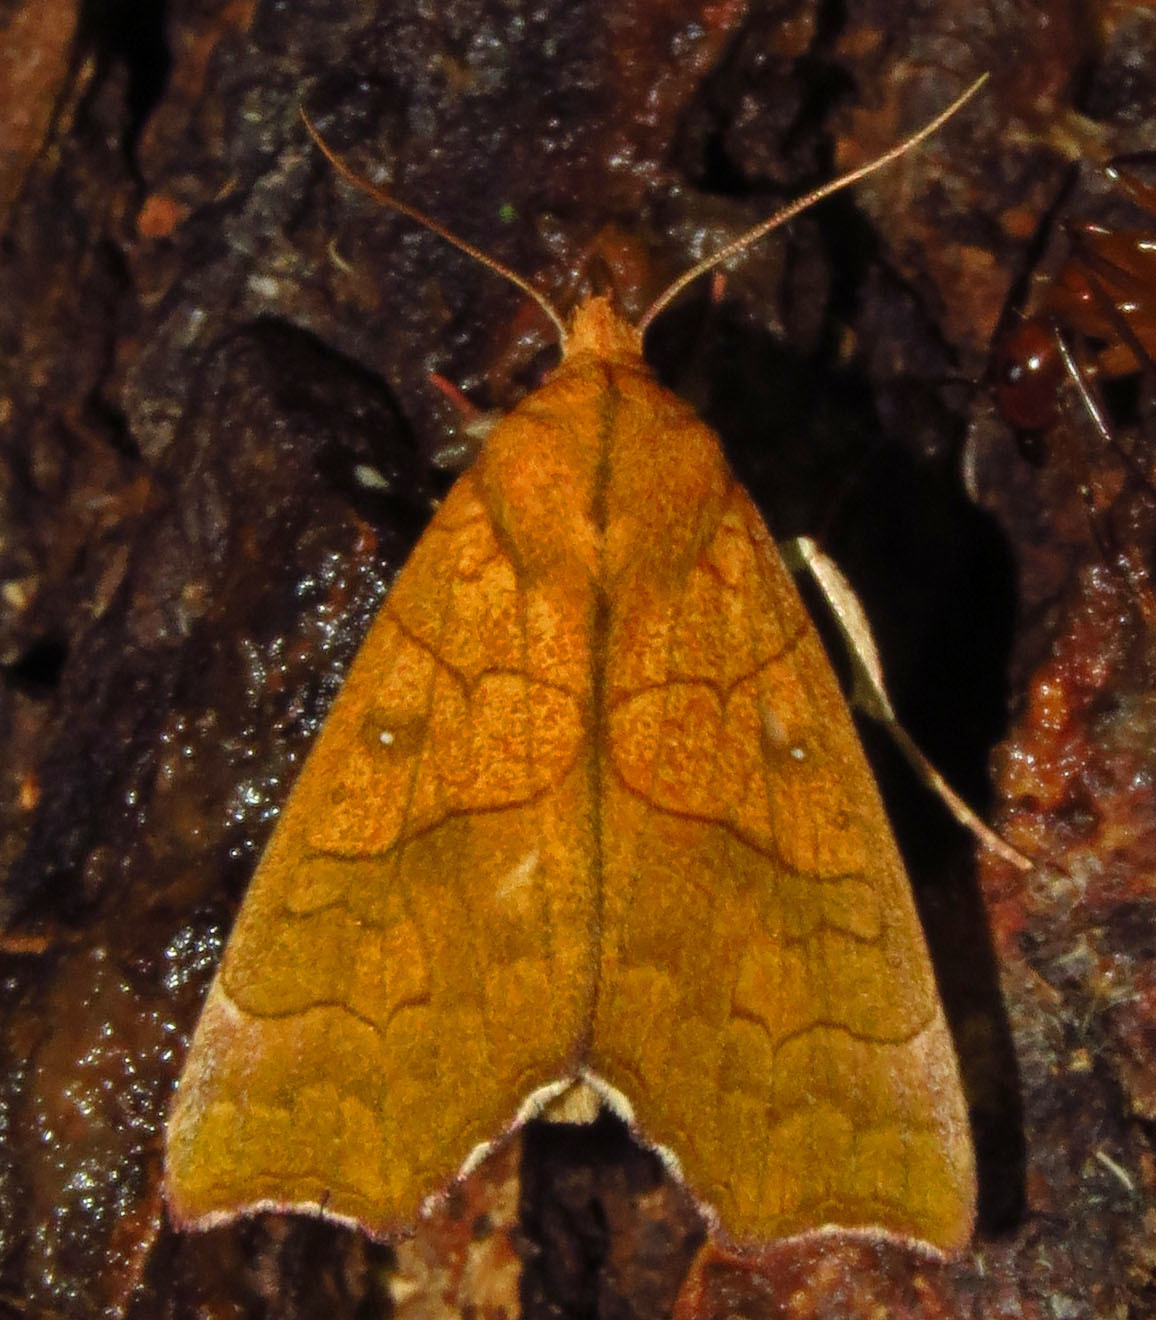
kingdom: Animalia
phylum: Arthropoda
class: Insecta
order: Lepidoptera
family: Erebidae
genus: Anomis
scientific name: Anomis erosa
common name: Yellow scallop moth
